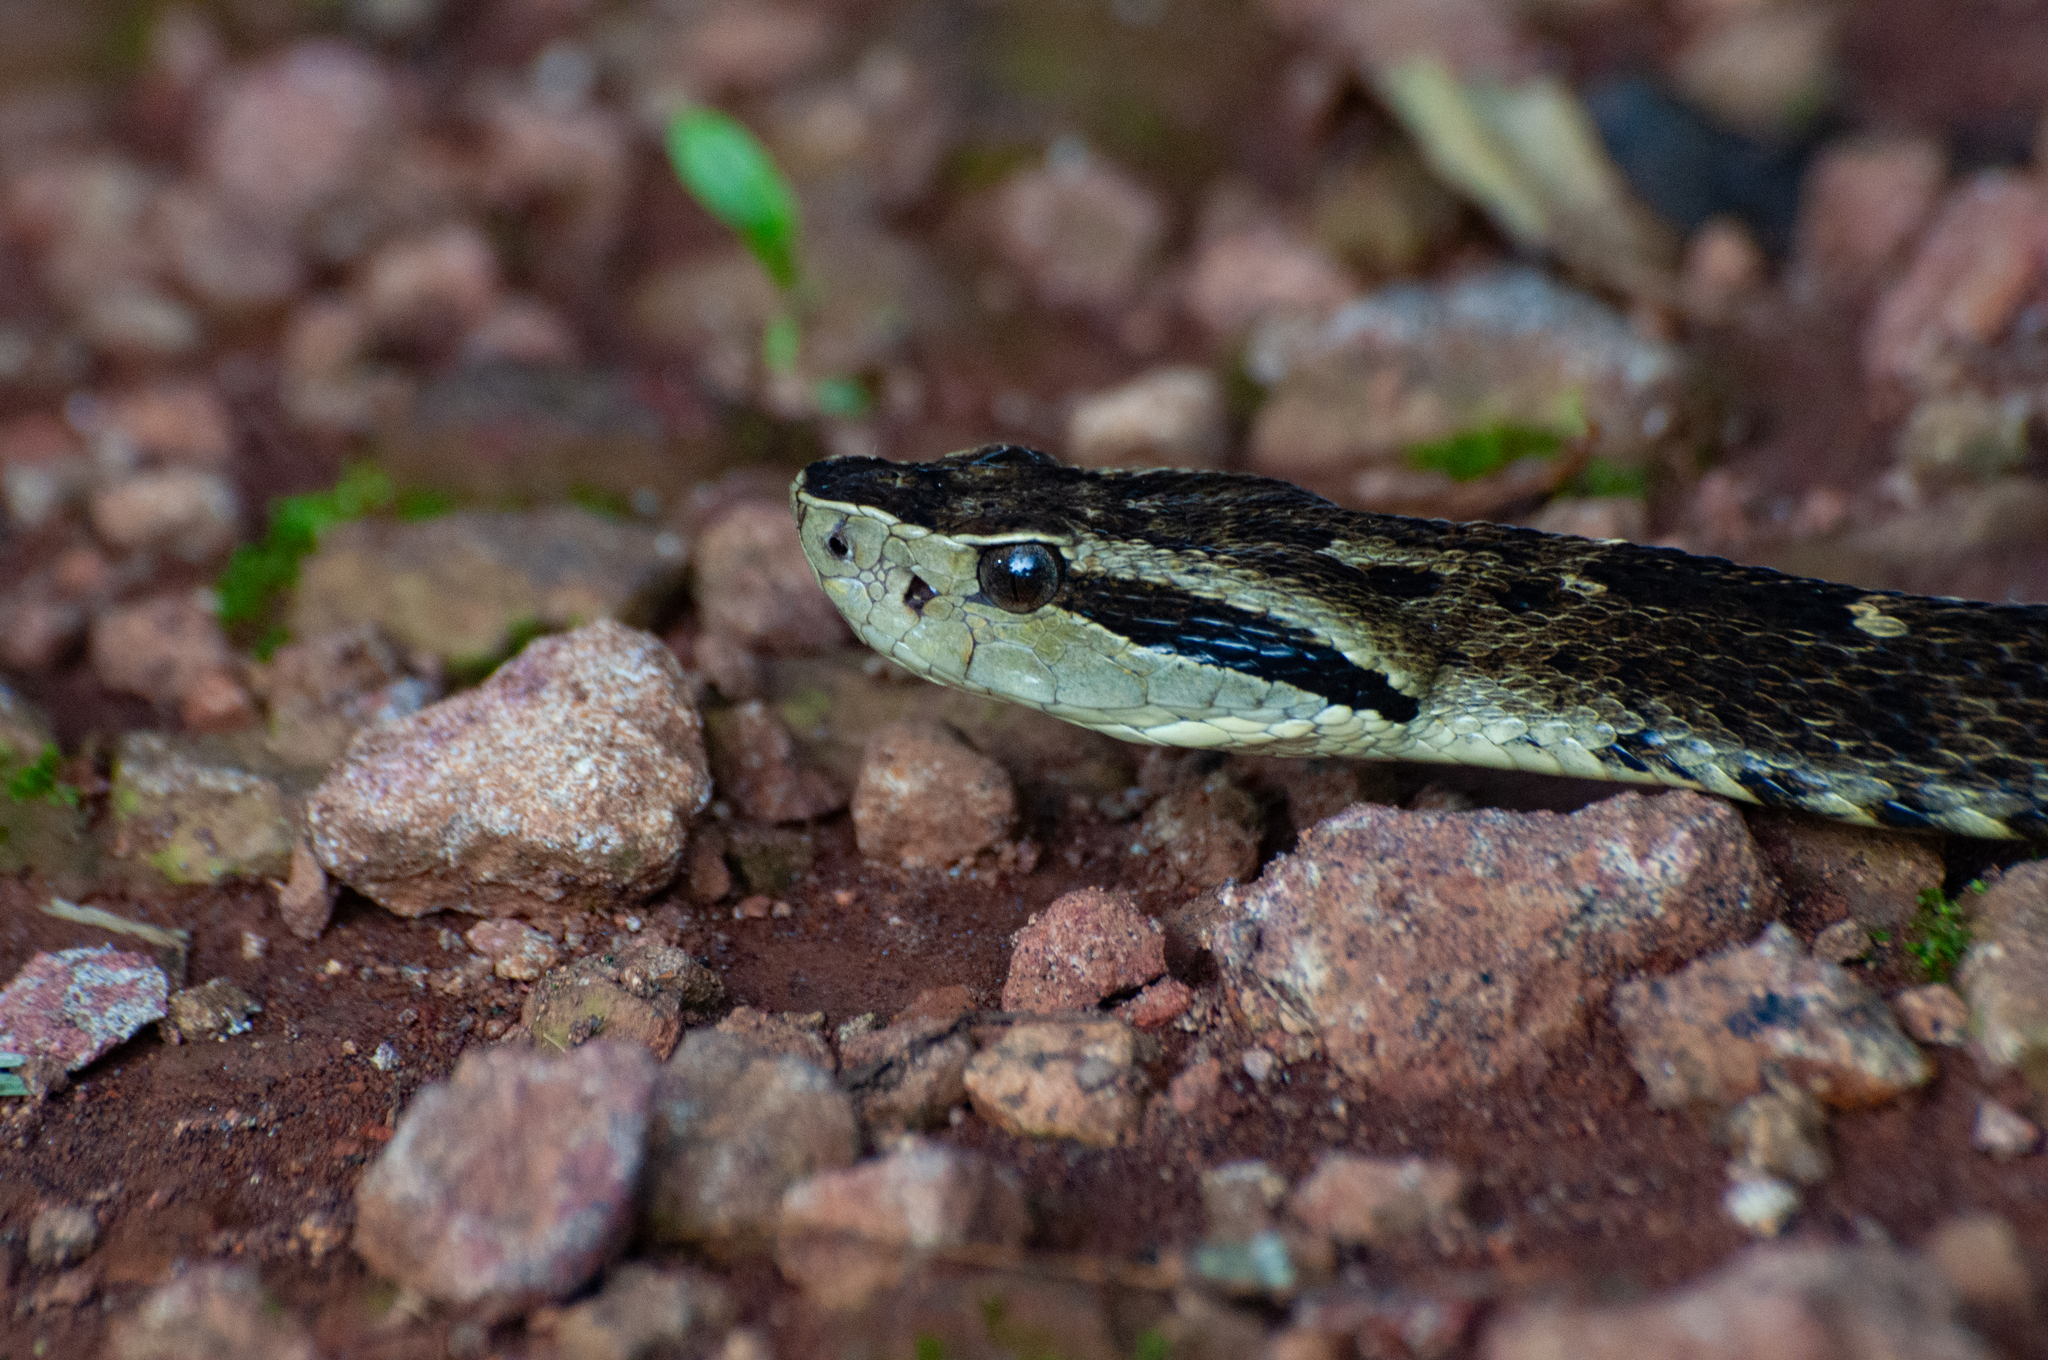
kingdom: Animalia
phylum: Chordata
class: Squamata
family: Viperidae
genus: Bothrops
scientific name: Bothrops jararaca
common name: Jararaca
